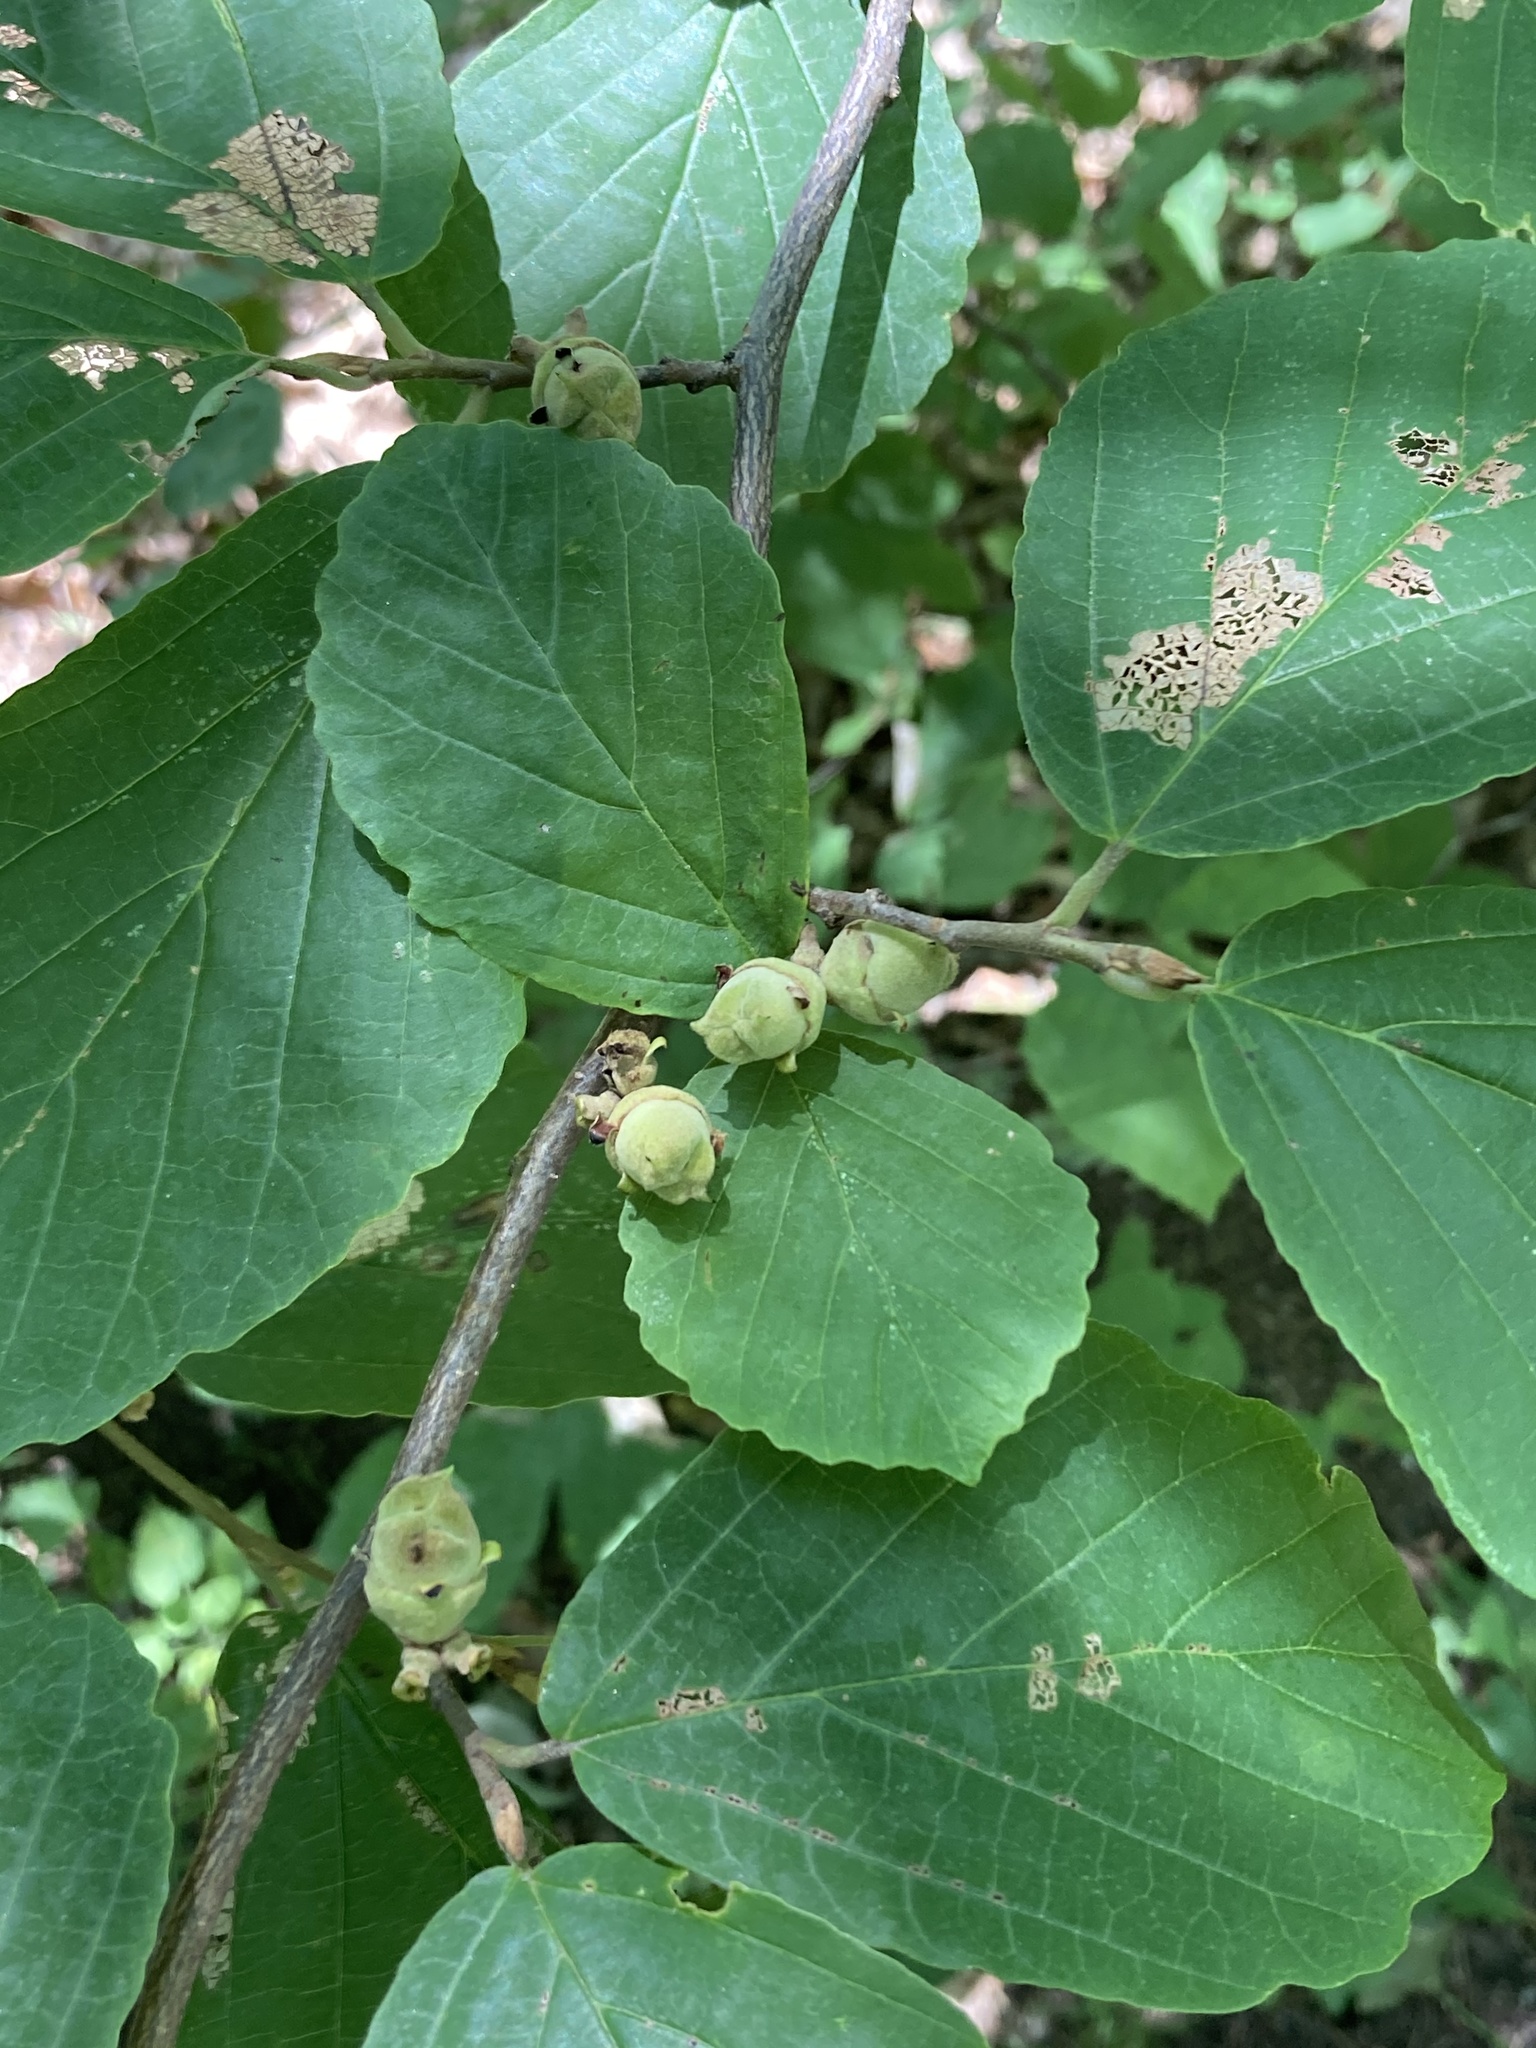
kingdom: Plantae
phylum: Tracheophyta
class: Magnoliopsida
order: Saxifragales
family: Hamamelidaceae
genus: Hamamelis
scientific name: Hamamelis virginiana
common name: Witch-hazel
